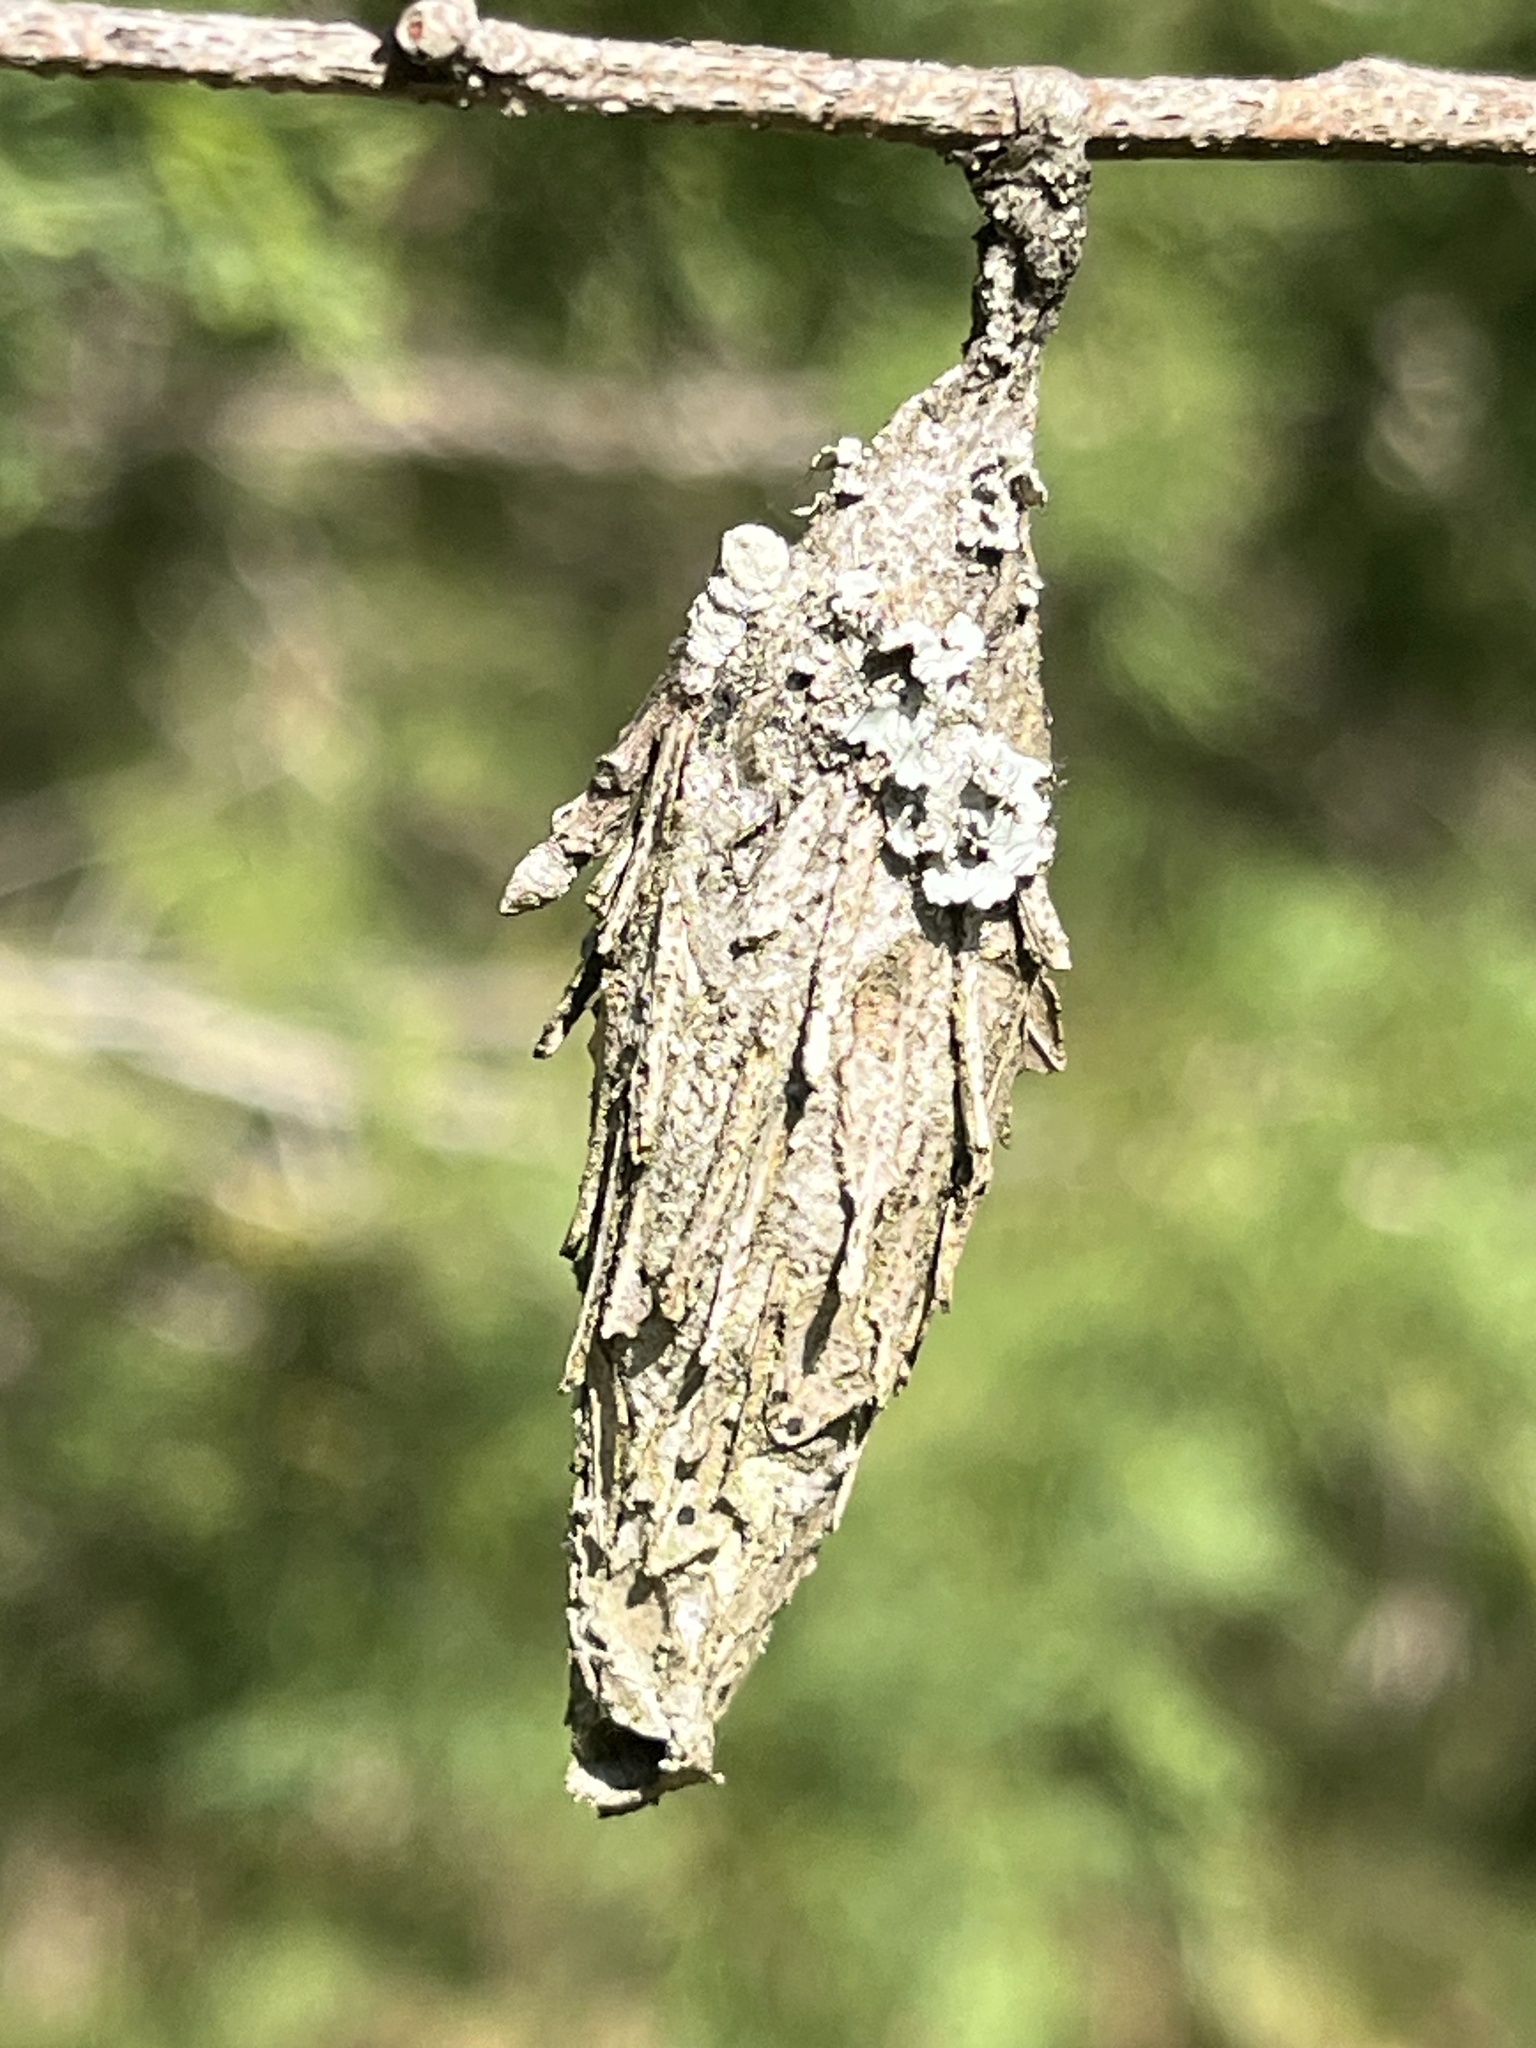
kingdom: Animalia
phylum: Arthropoda
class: Insecta
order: Lepidoptera
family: Psychidae
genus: Thyridopteryx
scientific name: Thyridopteryx ephemeraeformis
